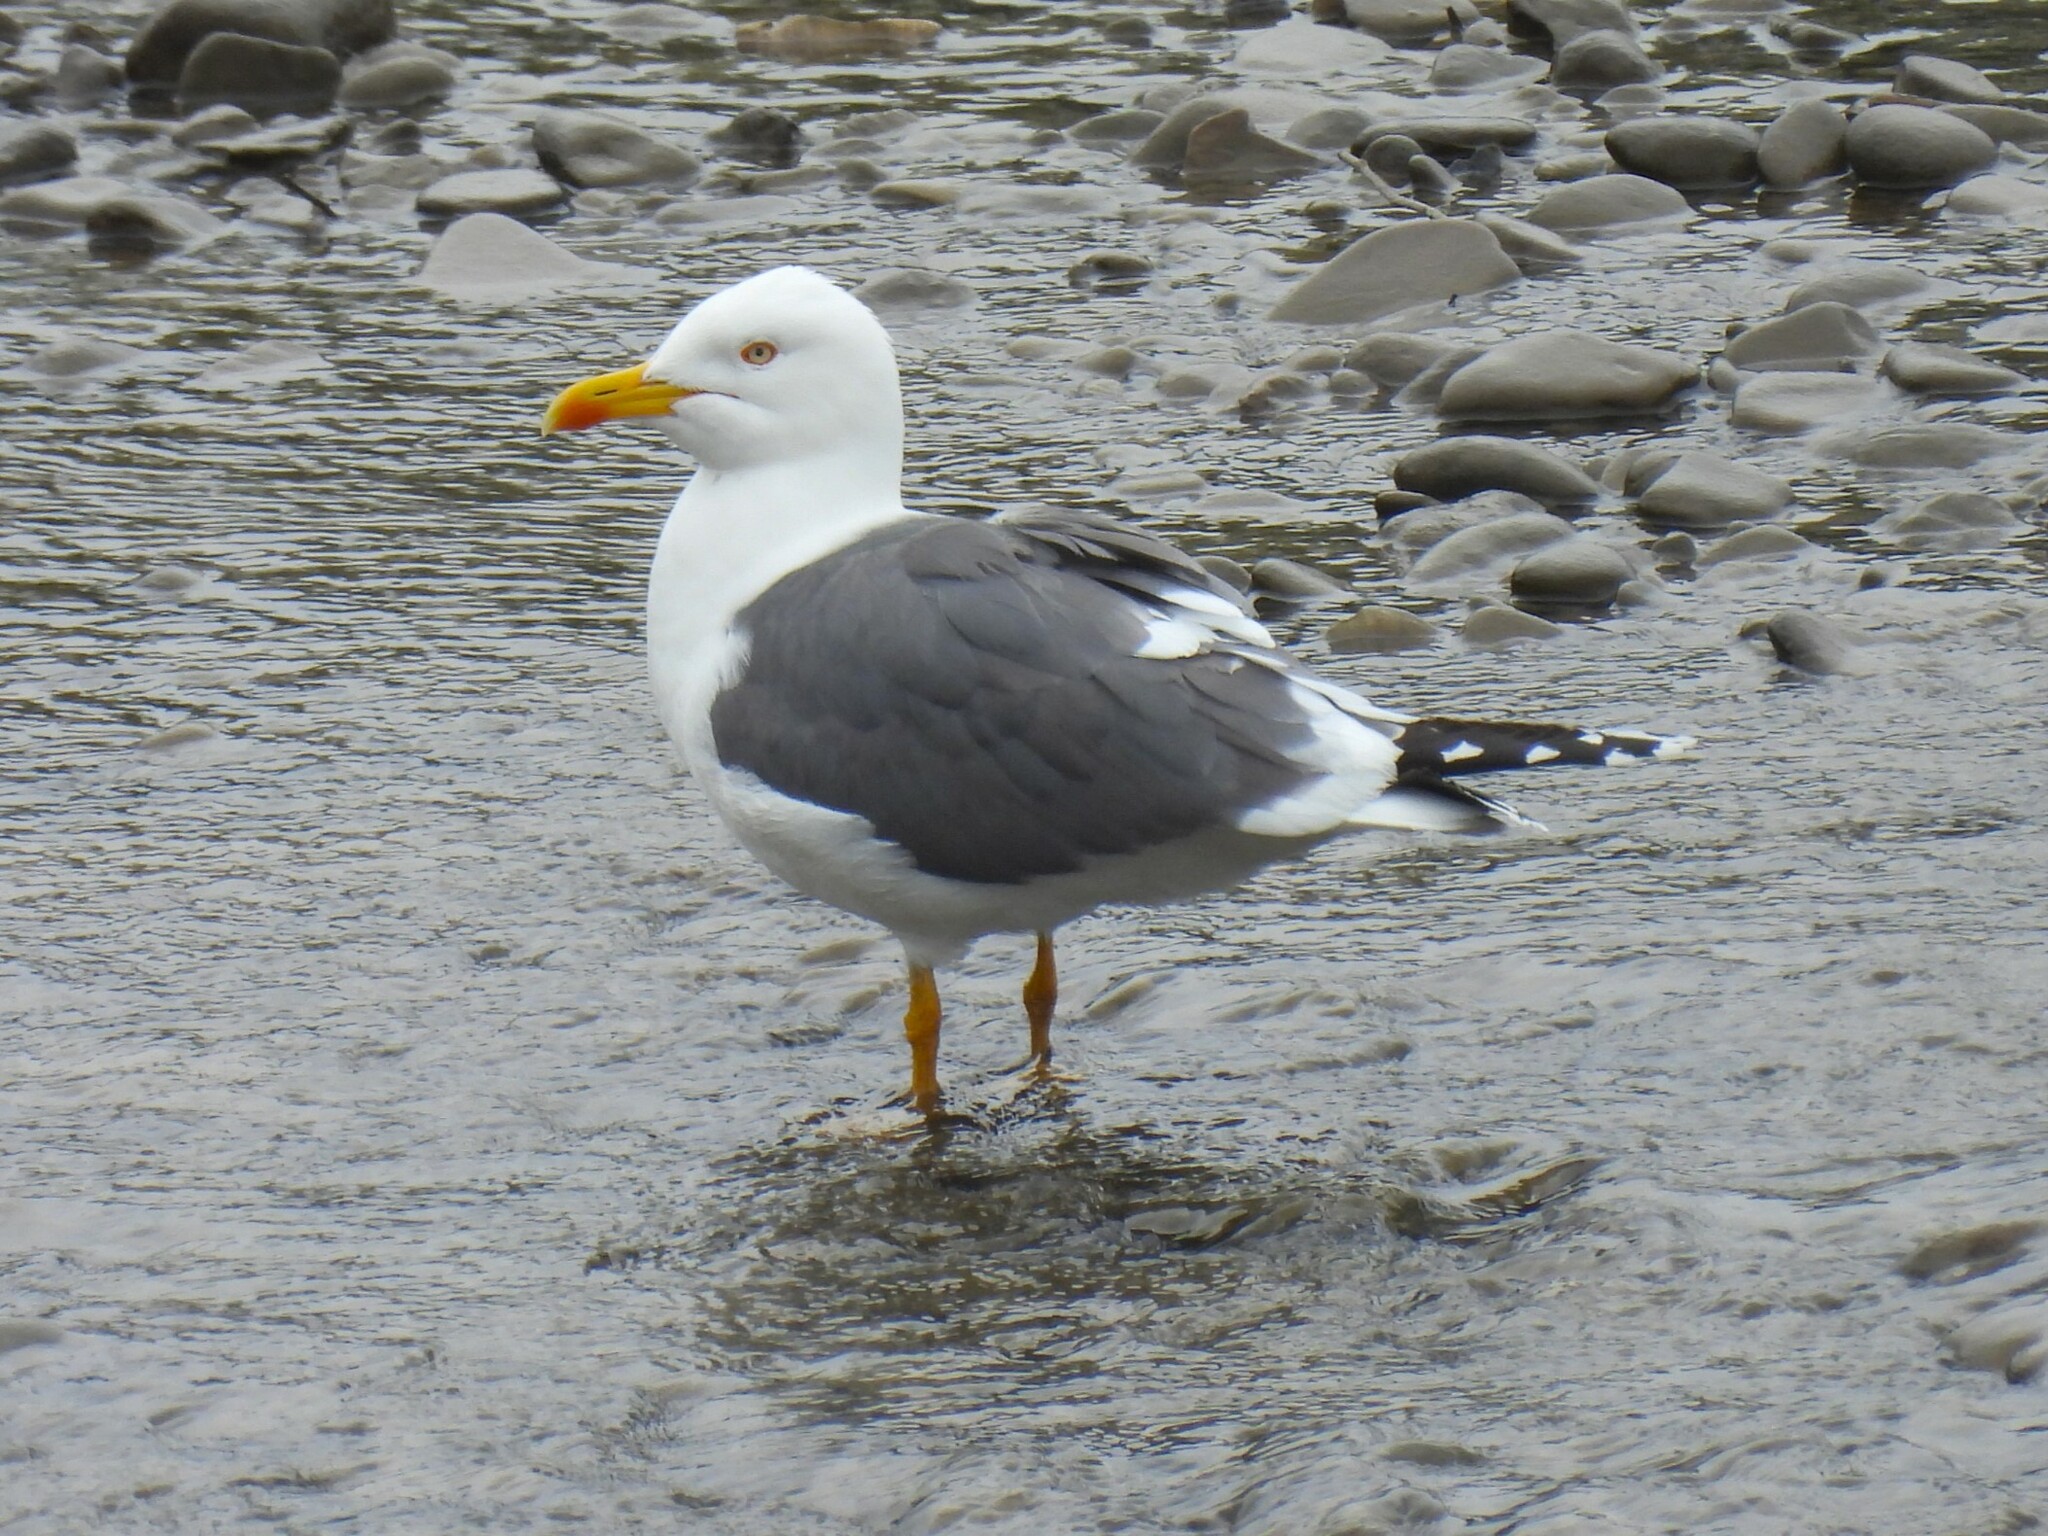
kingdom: Animalia
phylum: Chordata
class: Aves
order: Charadriiformes
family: Laridae
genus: Larus
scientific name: Larus fuscus
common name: Lesser black-backed gull
